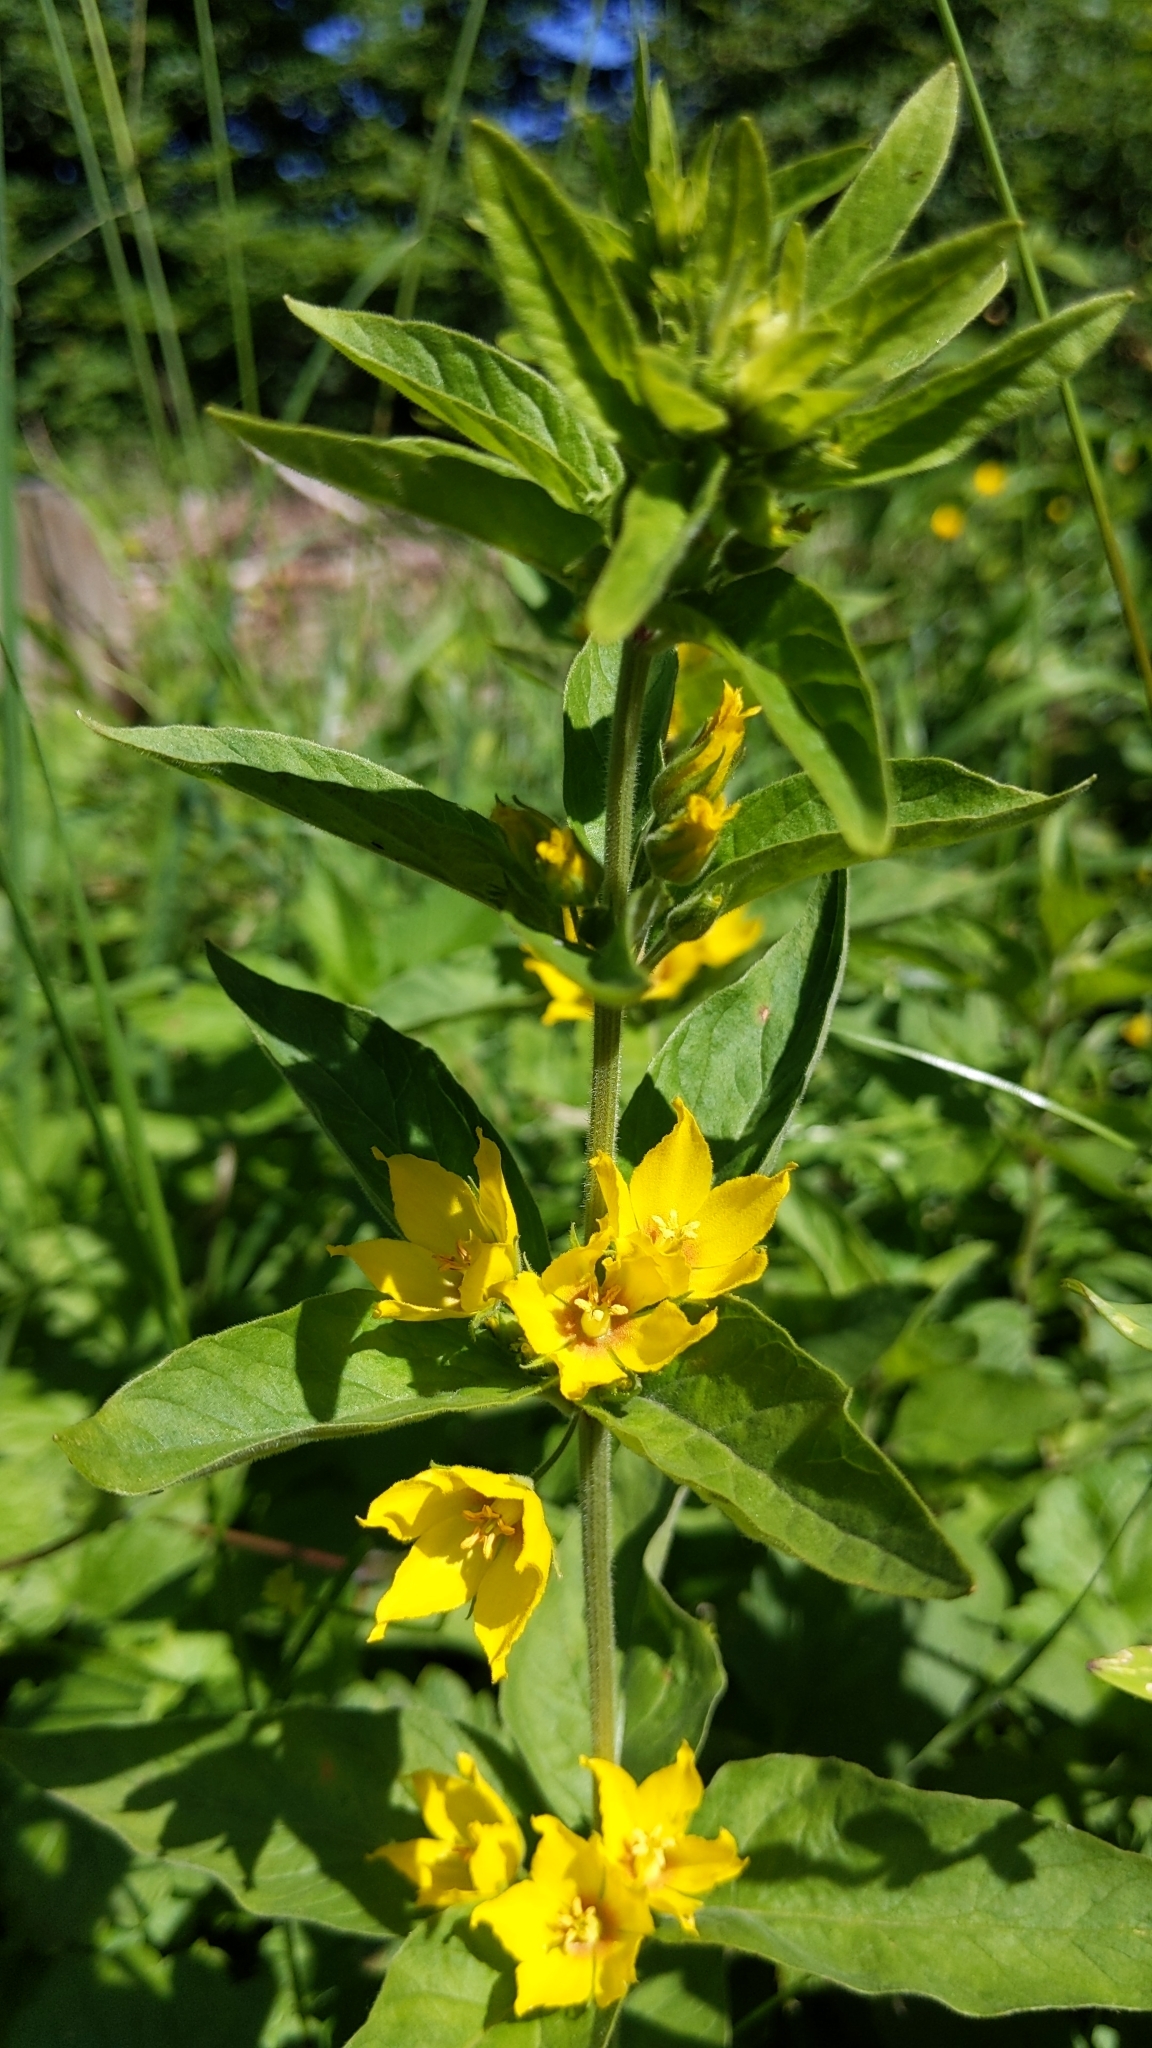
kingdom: Plantae
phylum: Tracheophyta
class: Magnoliopsida
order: Ericales
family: Primulaceae
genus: Lysimachia
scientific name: Lysimachia punctata
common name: Dotted loosestrife
